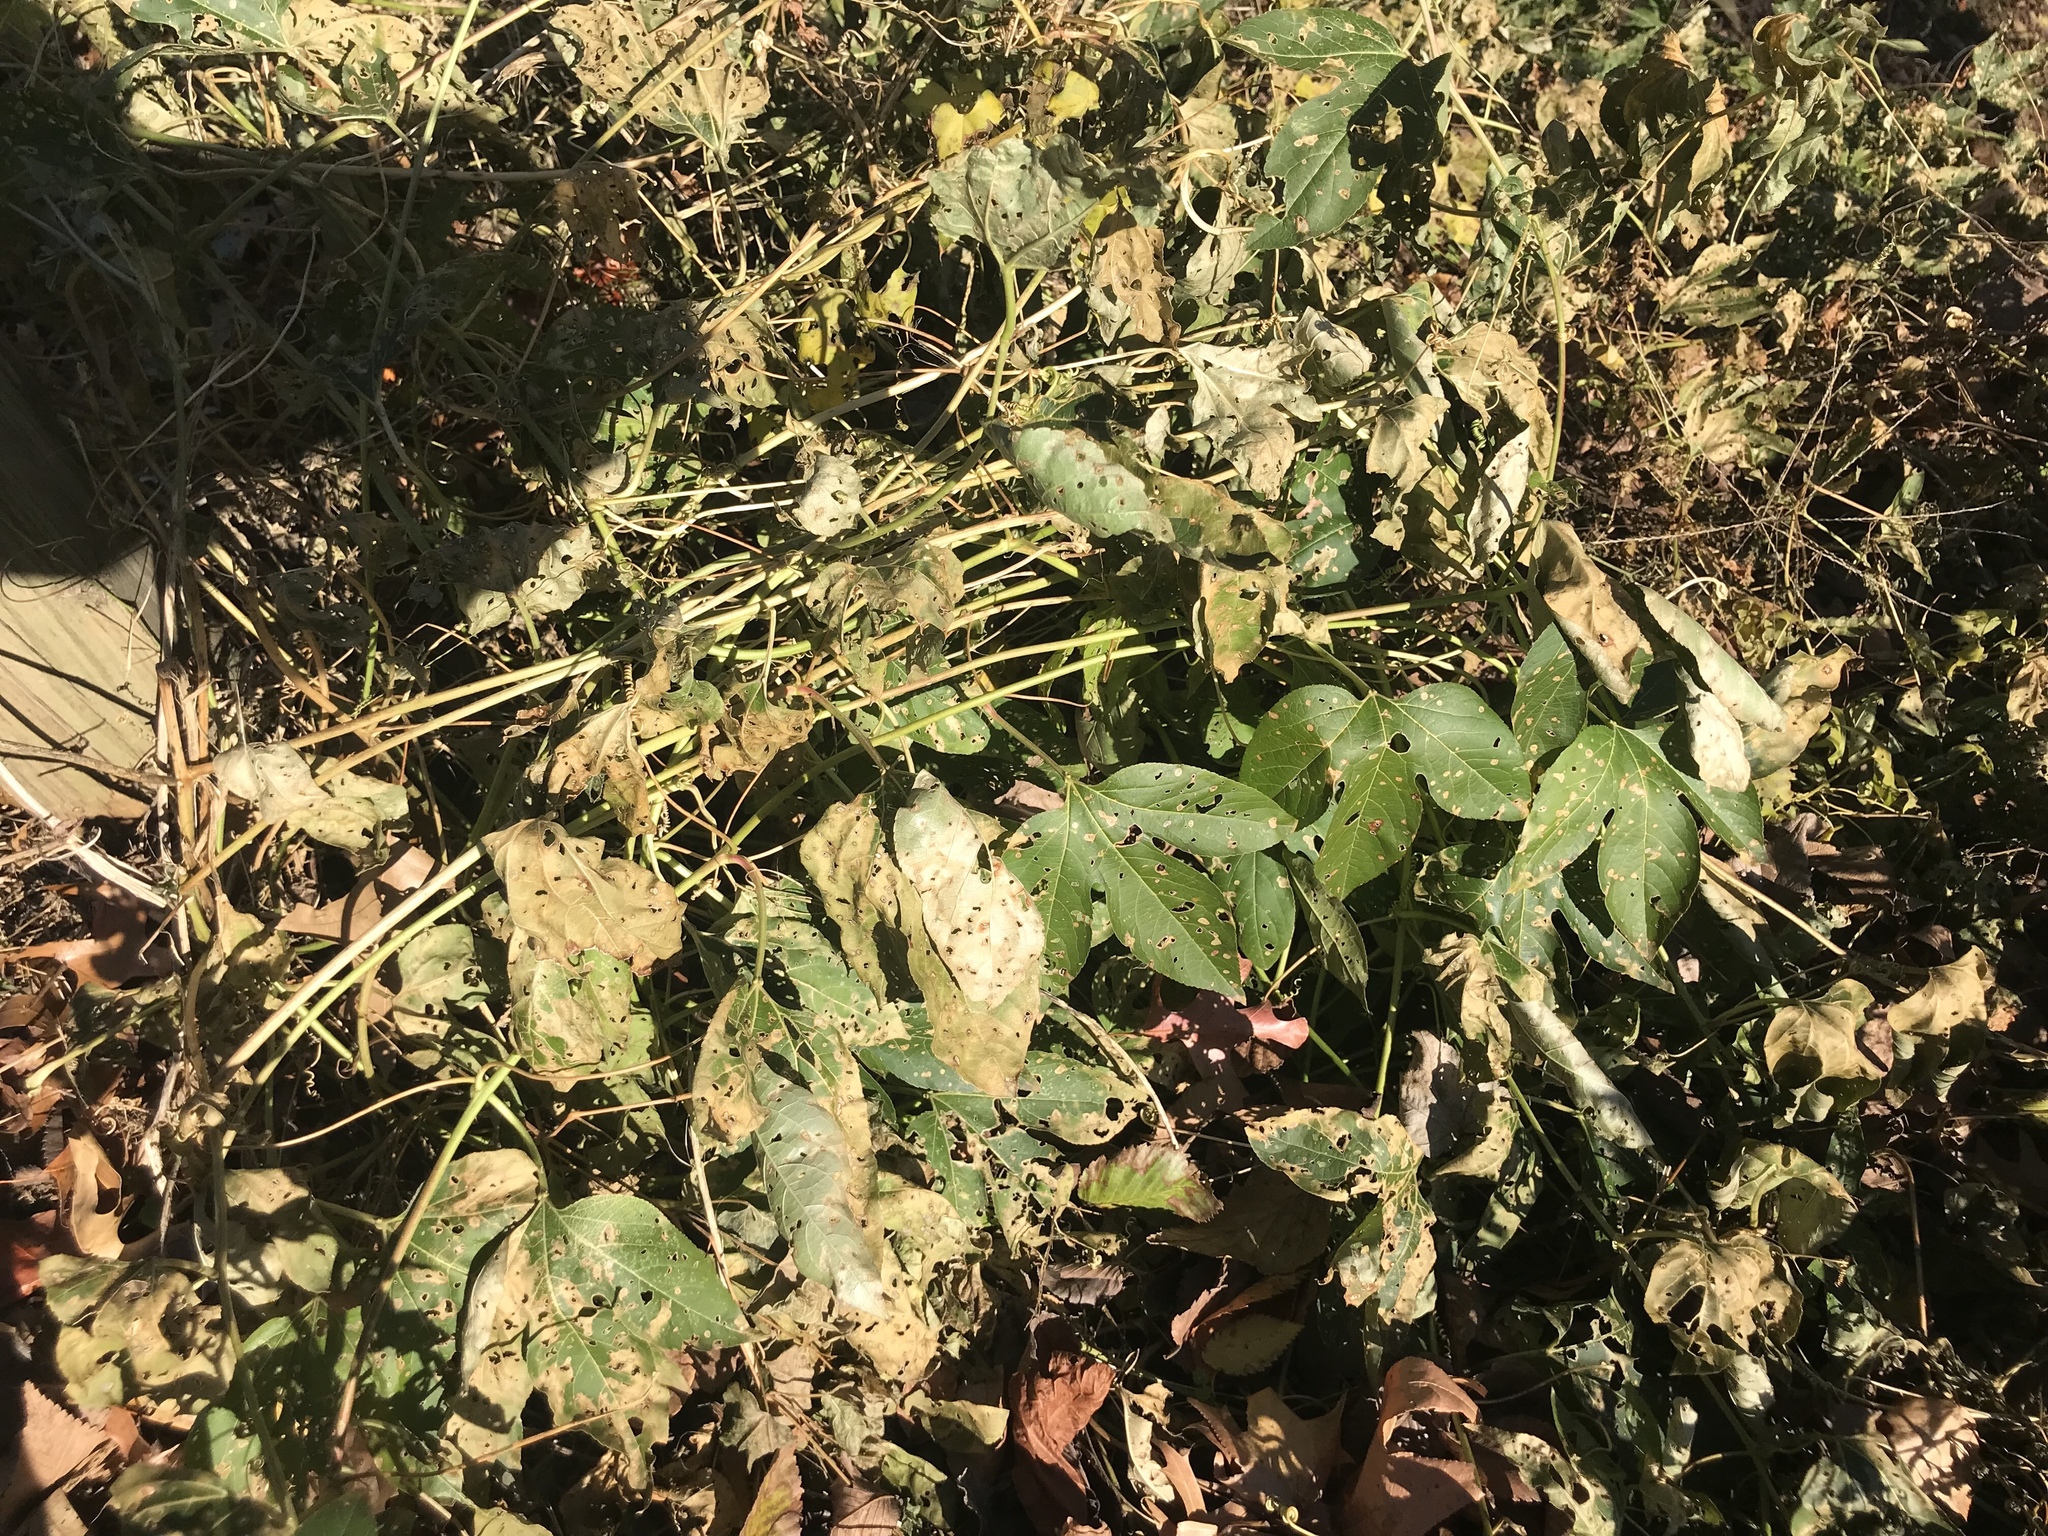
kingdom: Plantae
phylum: Tracheophyta
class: Magnoliopsida
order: Malpighiales
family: Passifloraceae
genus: Passiflora
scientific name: Passiflora incarnata
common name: Apricot-vine
